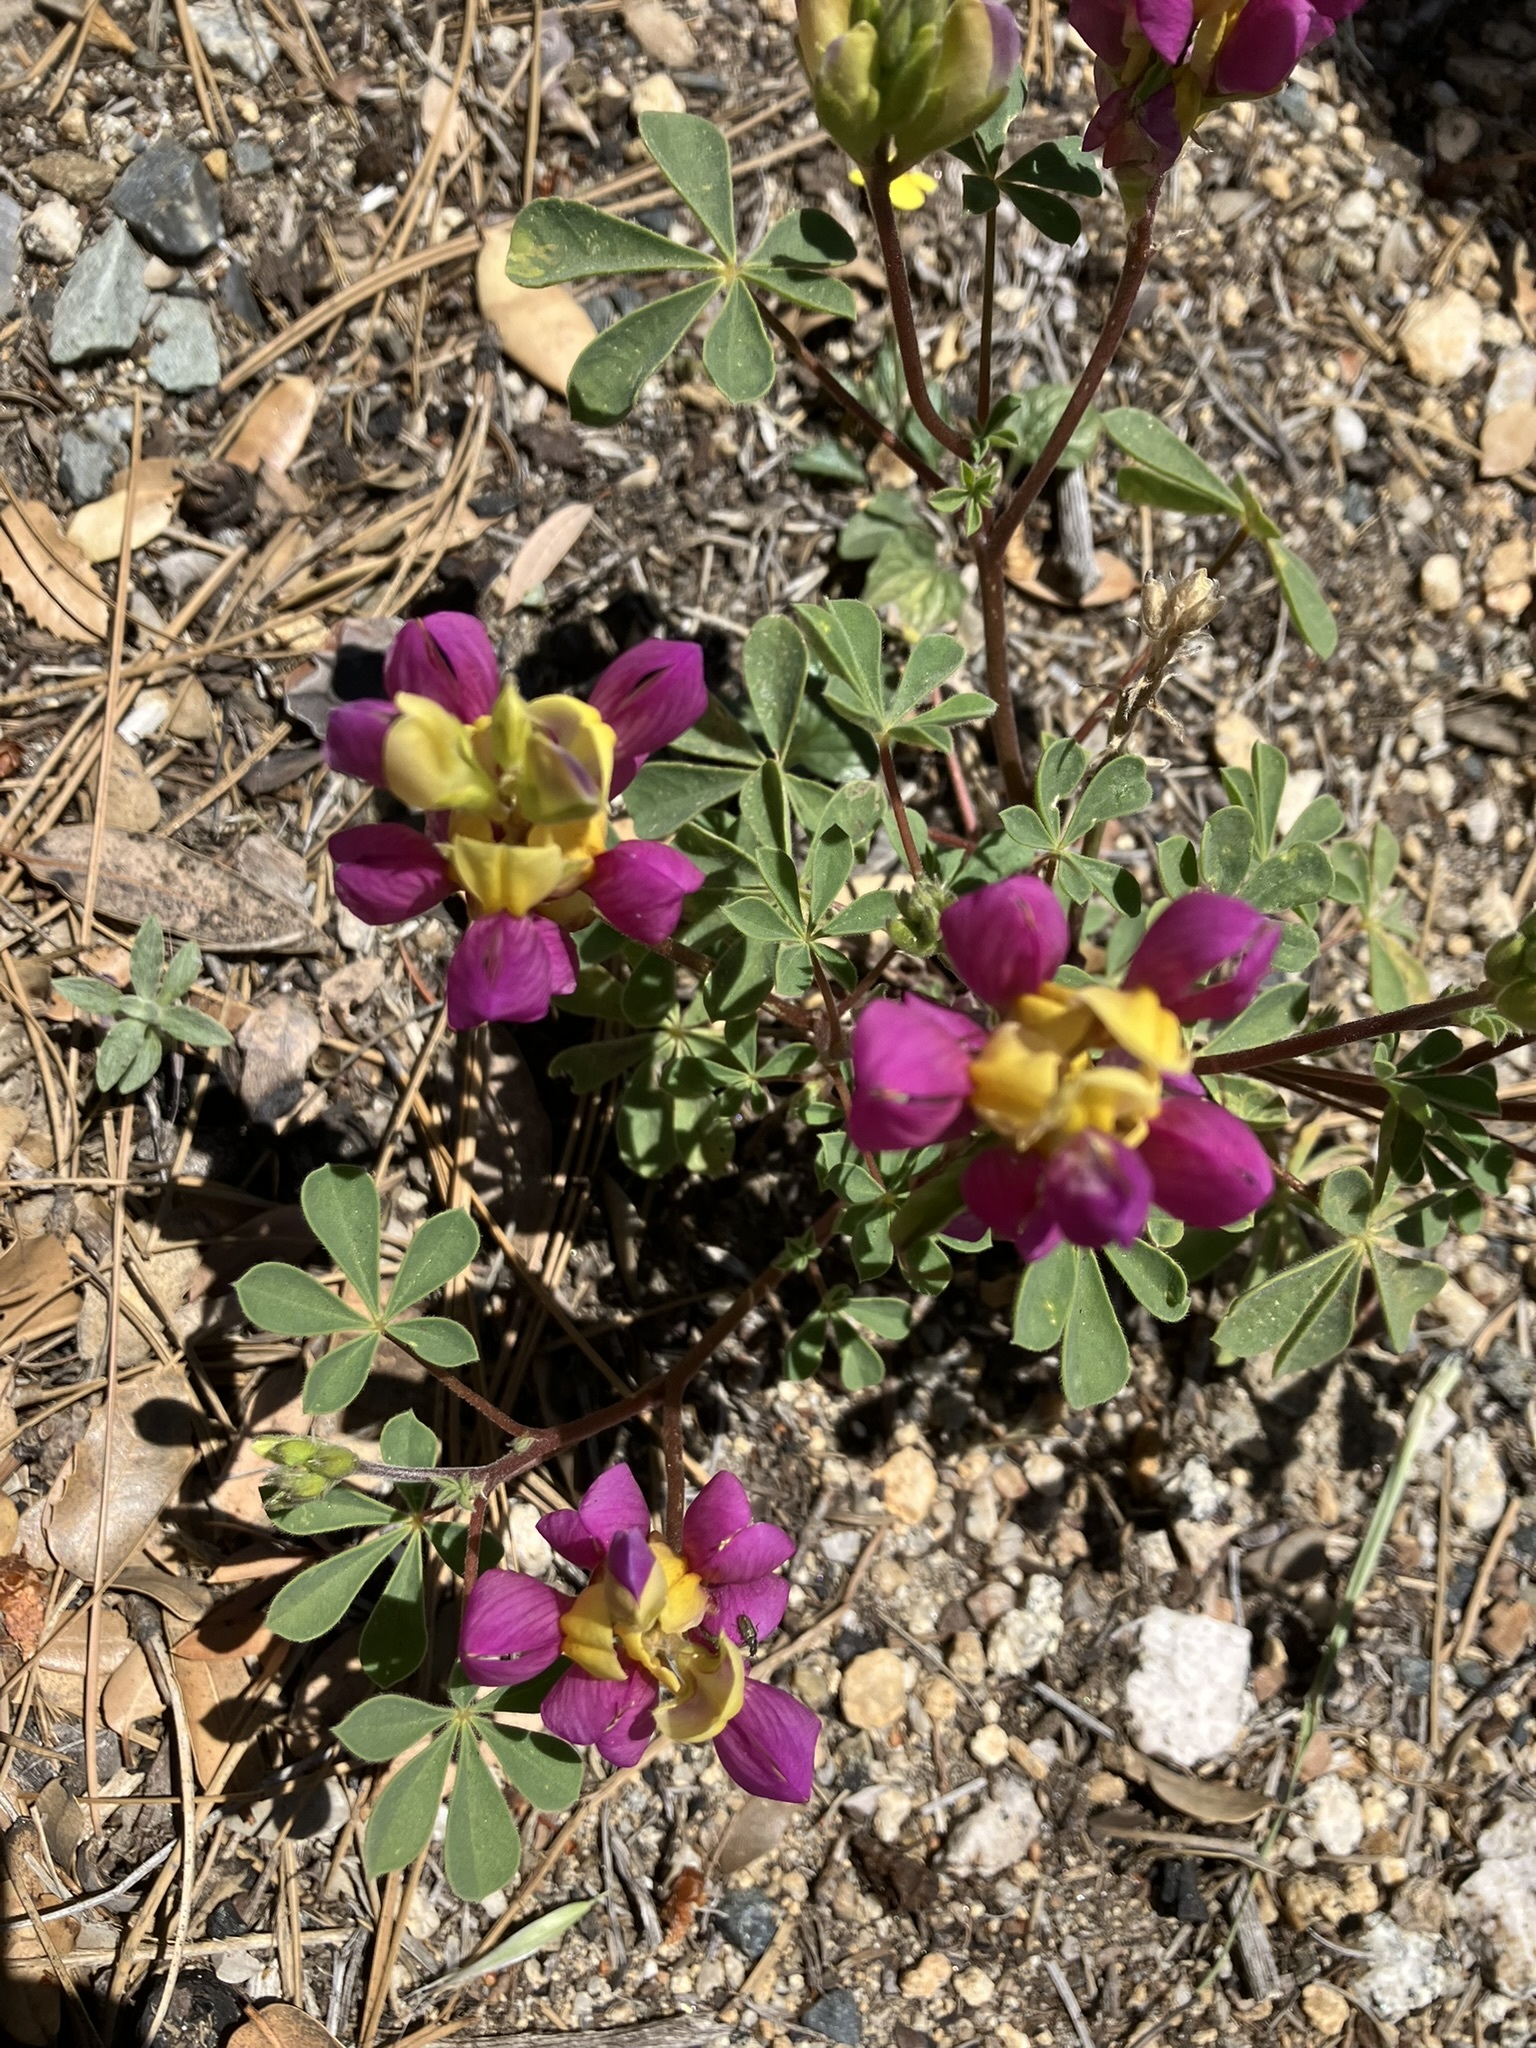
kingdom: Plantae
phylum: Tracheophyta
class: Magnoliopsida
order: Fabales
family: Fabaceae
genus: Lupinus
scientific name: Lupinus stiversii
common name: Harlequin lupine
